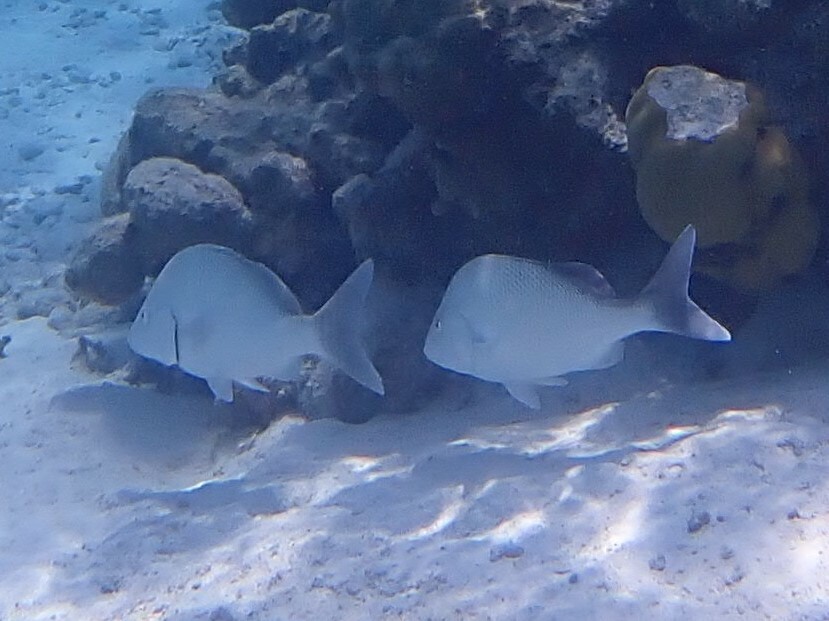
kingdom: Animalia
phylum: Chordata
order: Perciformes
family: Haemulidae
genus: Haemulon
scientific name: Haemulon album
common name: Margate
